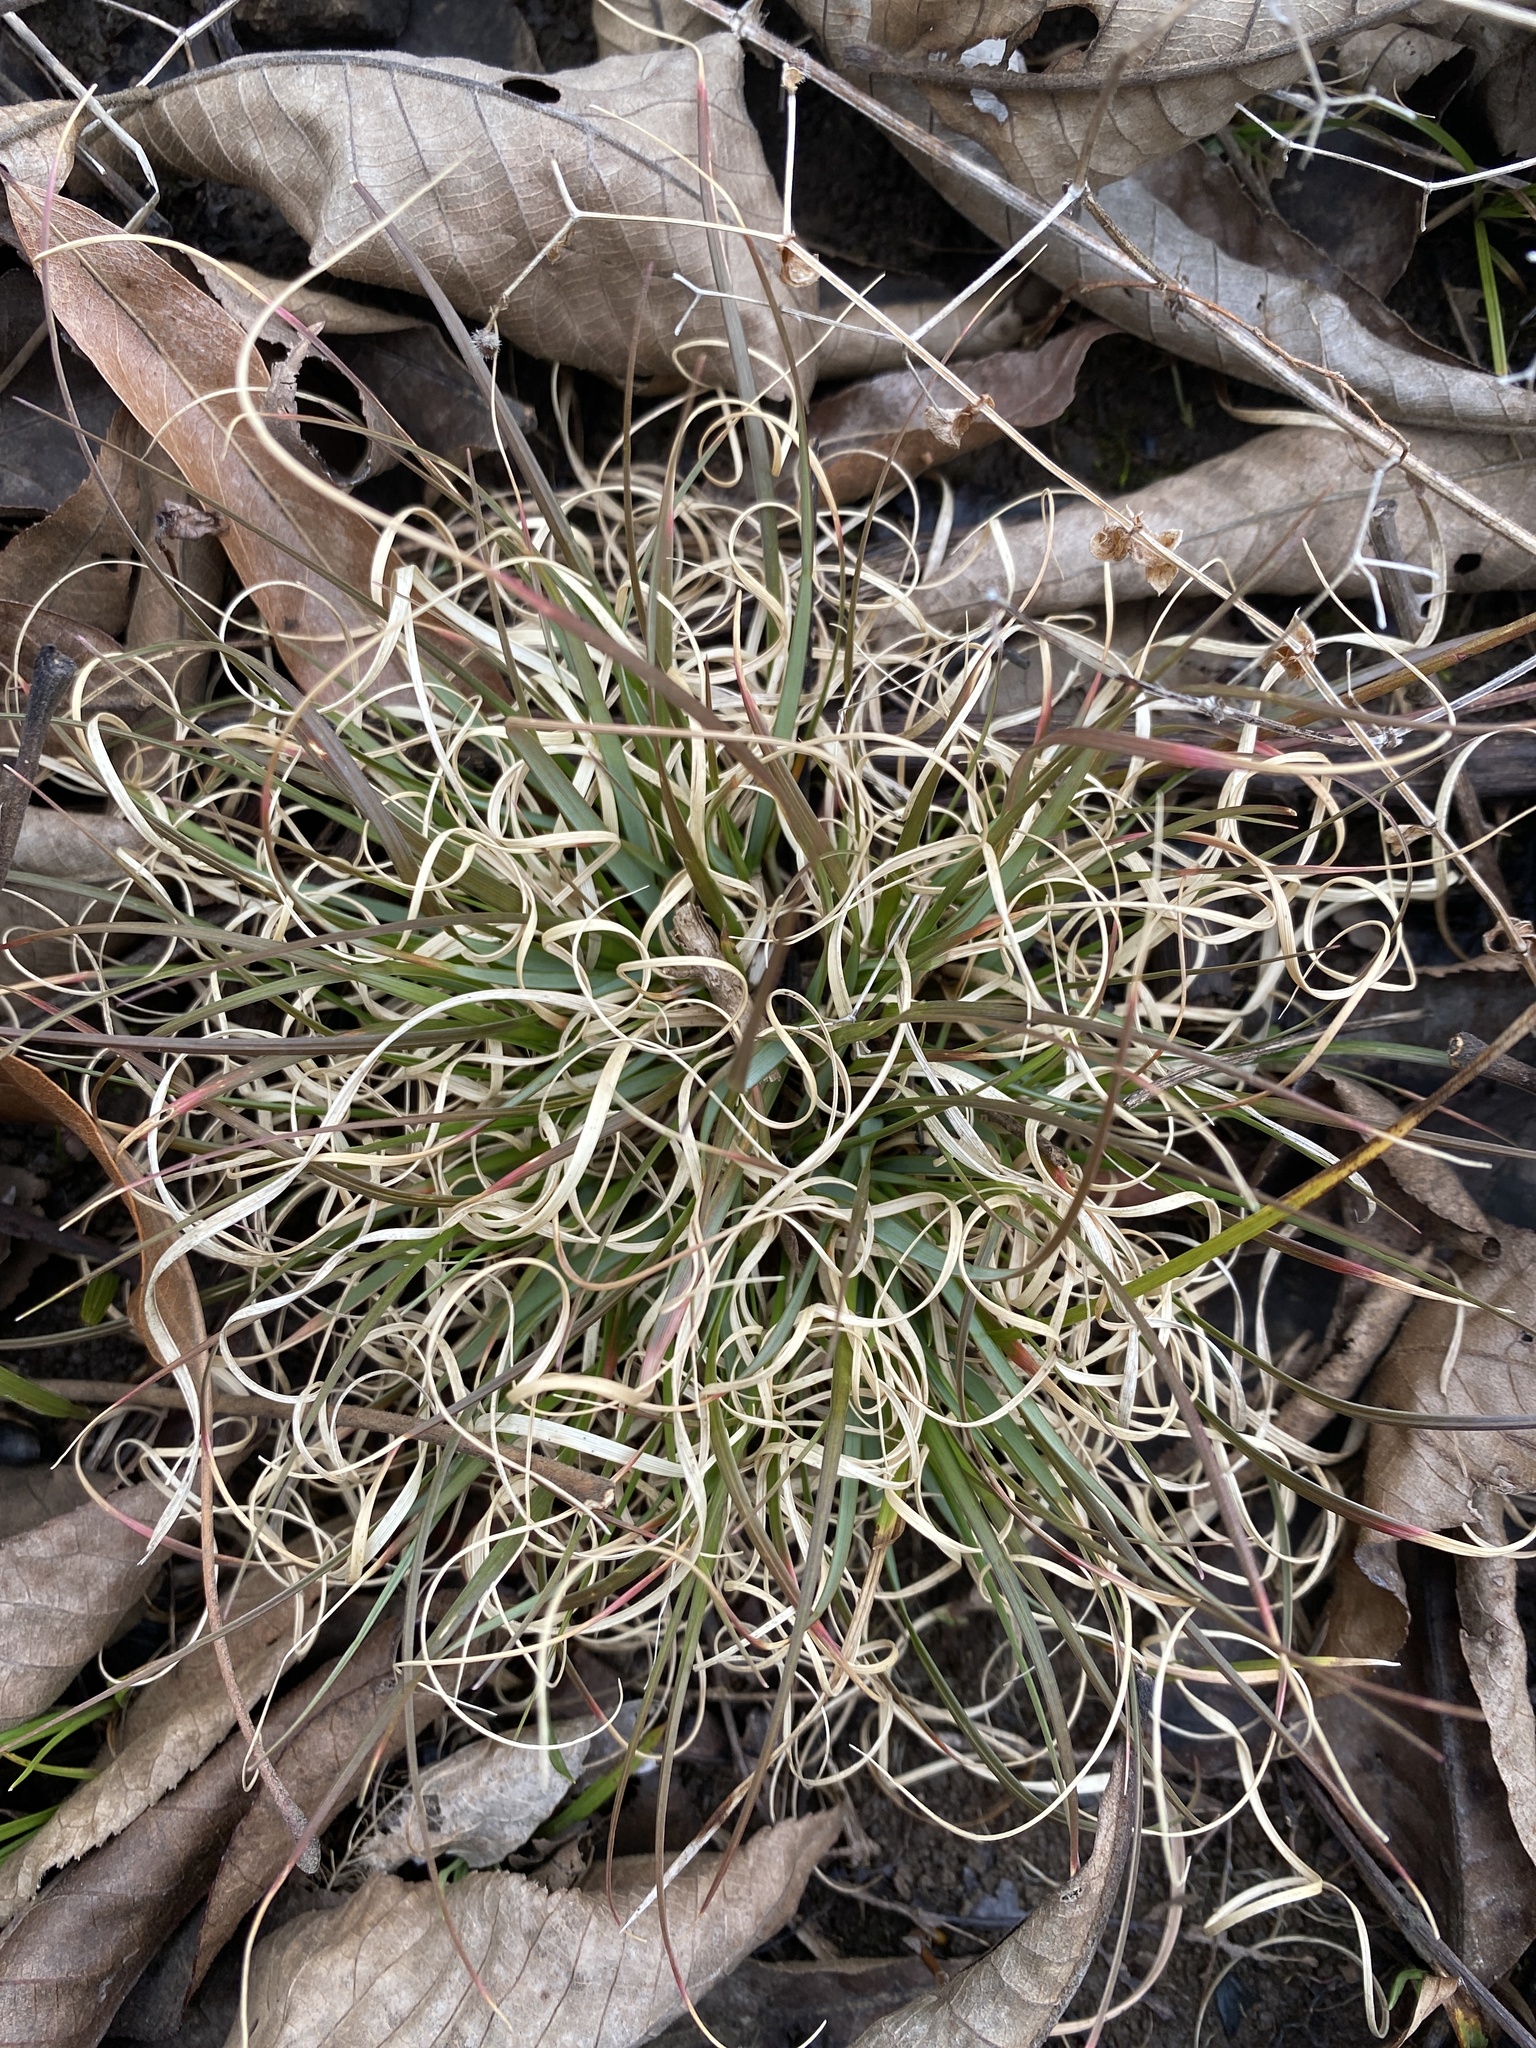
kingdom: Plantae
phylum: Tracheophyta
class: Liliopsida
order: Poales
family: Poaceae
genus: Danthonia
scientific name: Danthonia spicata
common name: Common wild oatgrass
